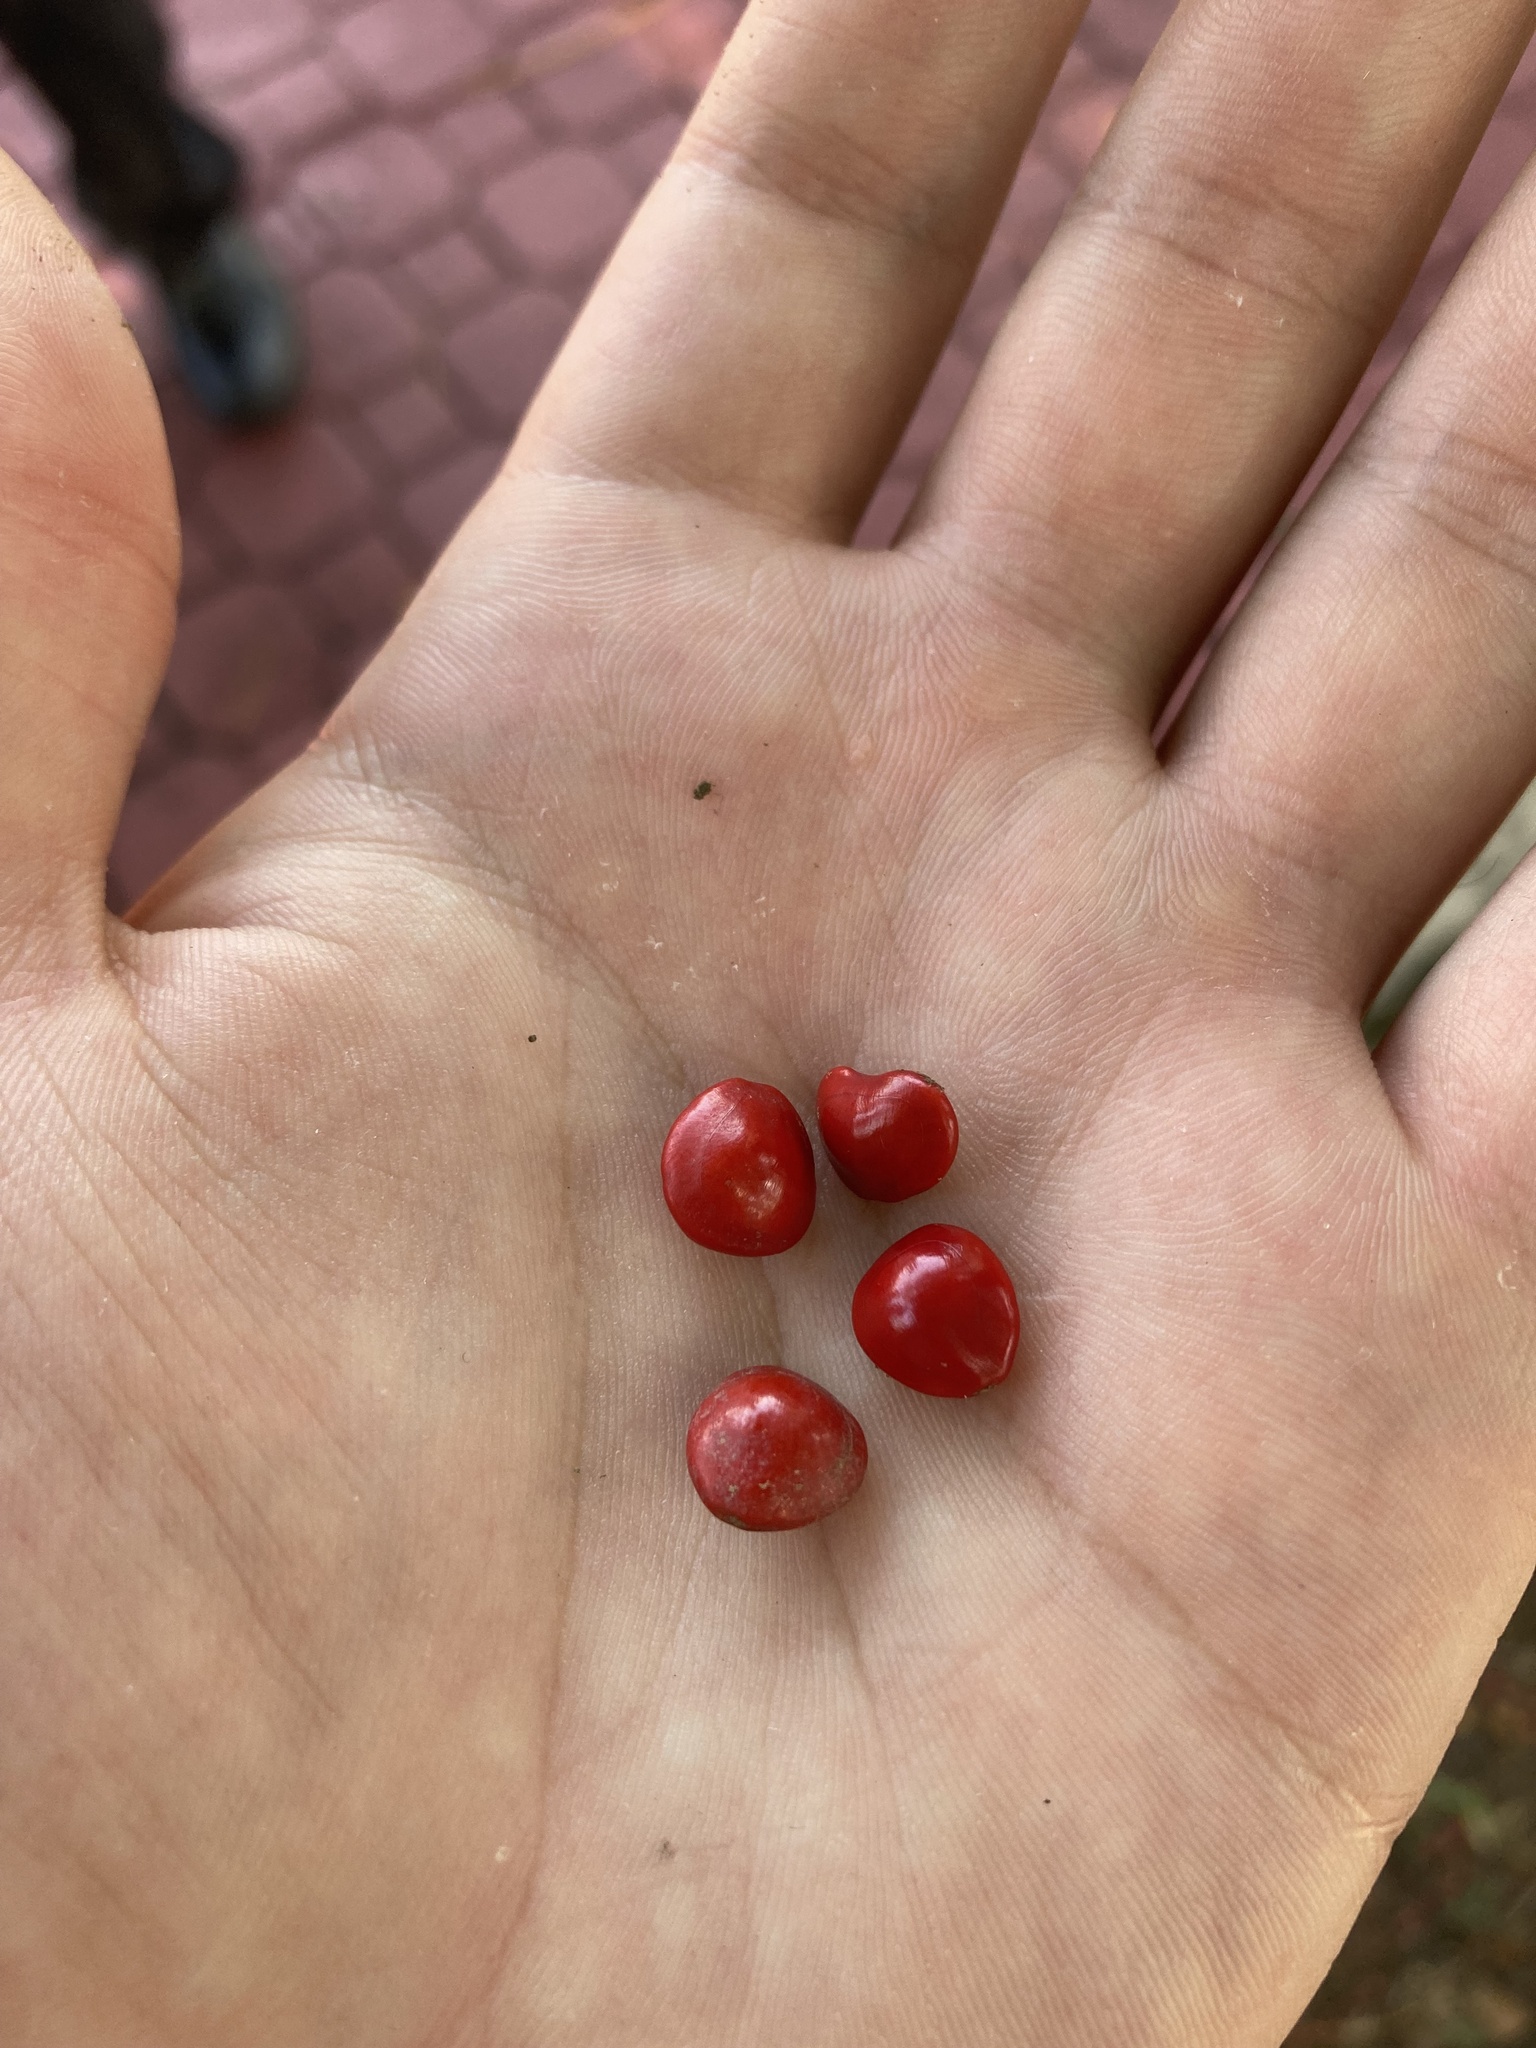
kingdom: Plantae
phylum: Tracheophyta
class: Magnoliopsida
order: Fabales
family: Fabaceae
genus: Adenanthera
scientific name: Adenanthera pavonina
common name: Red beadtree
